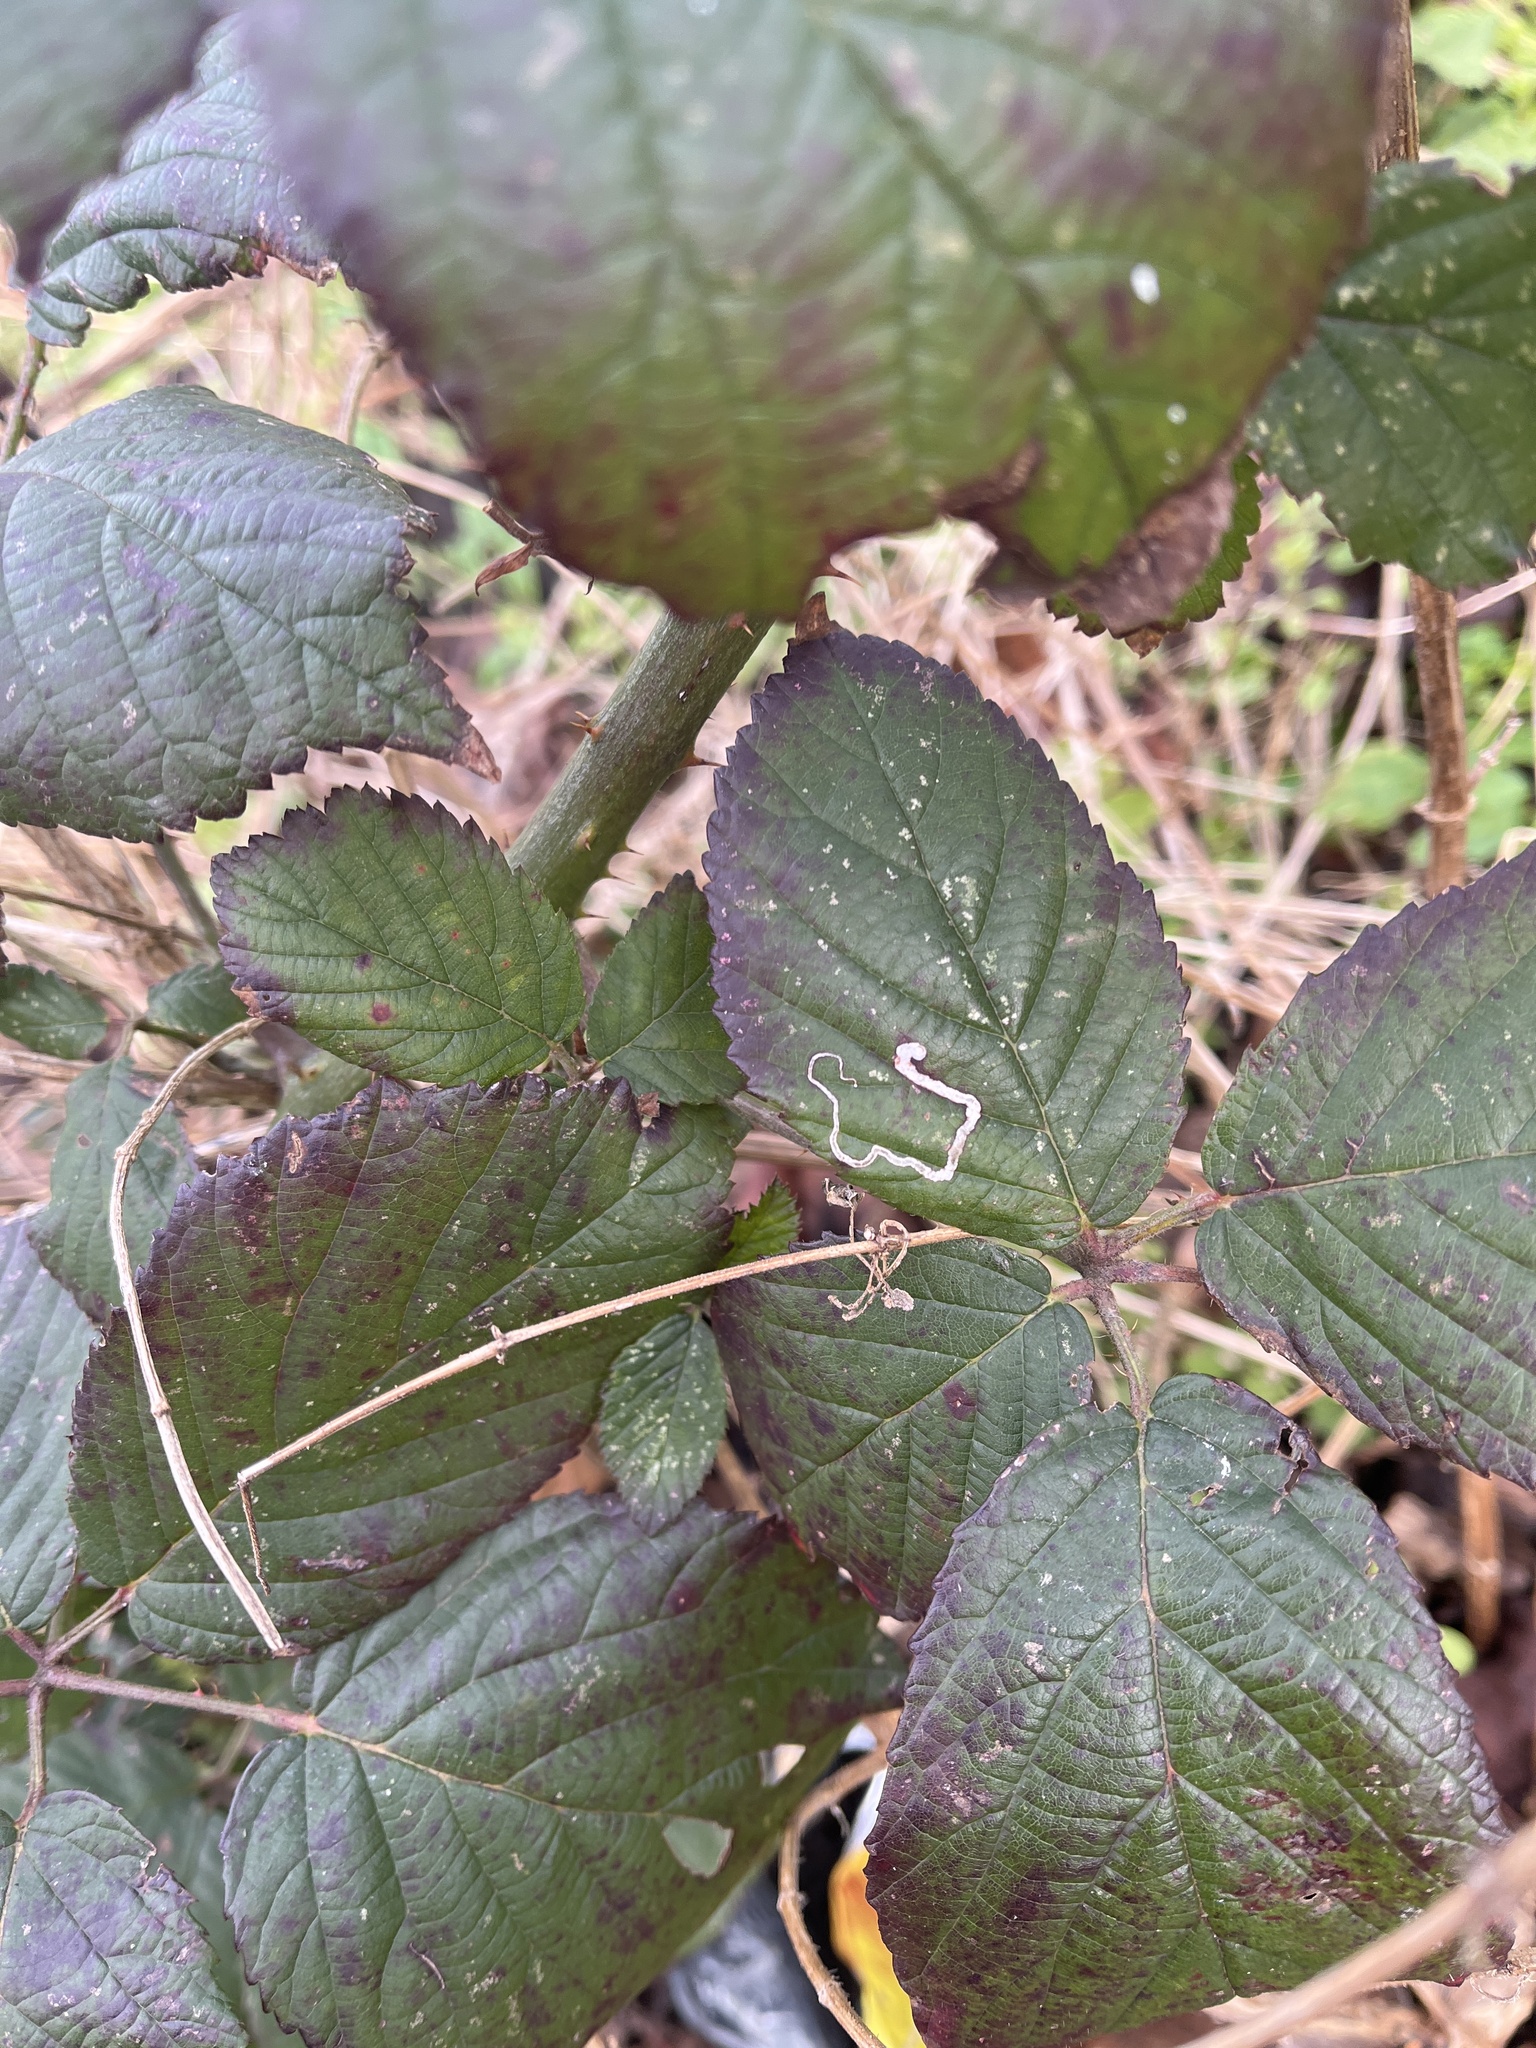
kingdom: Animalia
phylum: Arthropoda
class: Insecta
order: Lepidoptera
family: Nepticulidae
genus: Stigmella
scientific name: Stigmella aurella
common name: Golden pigmy
